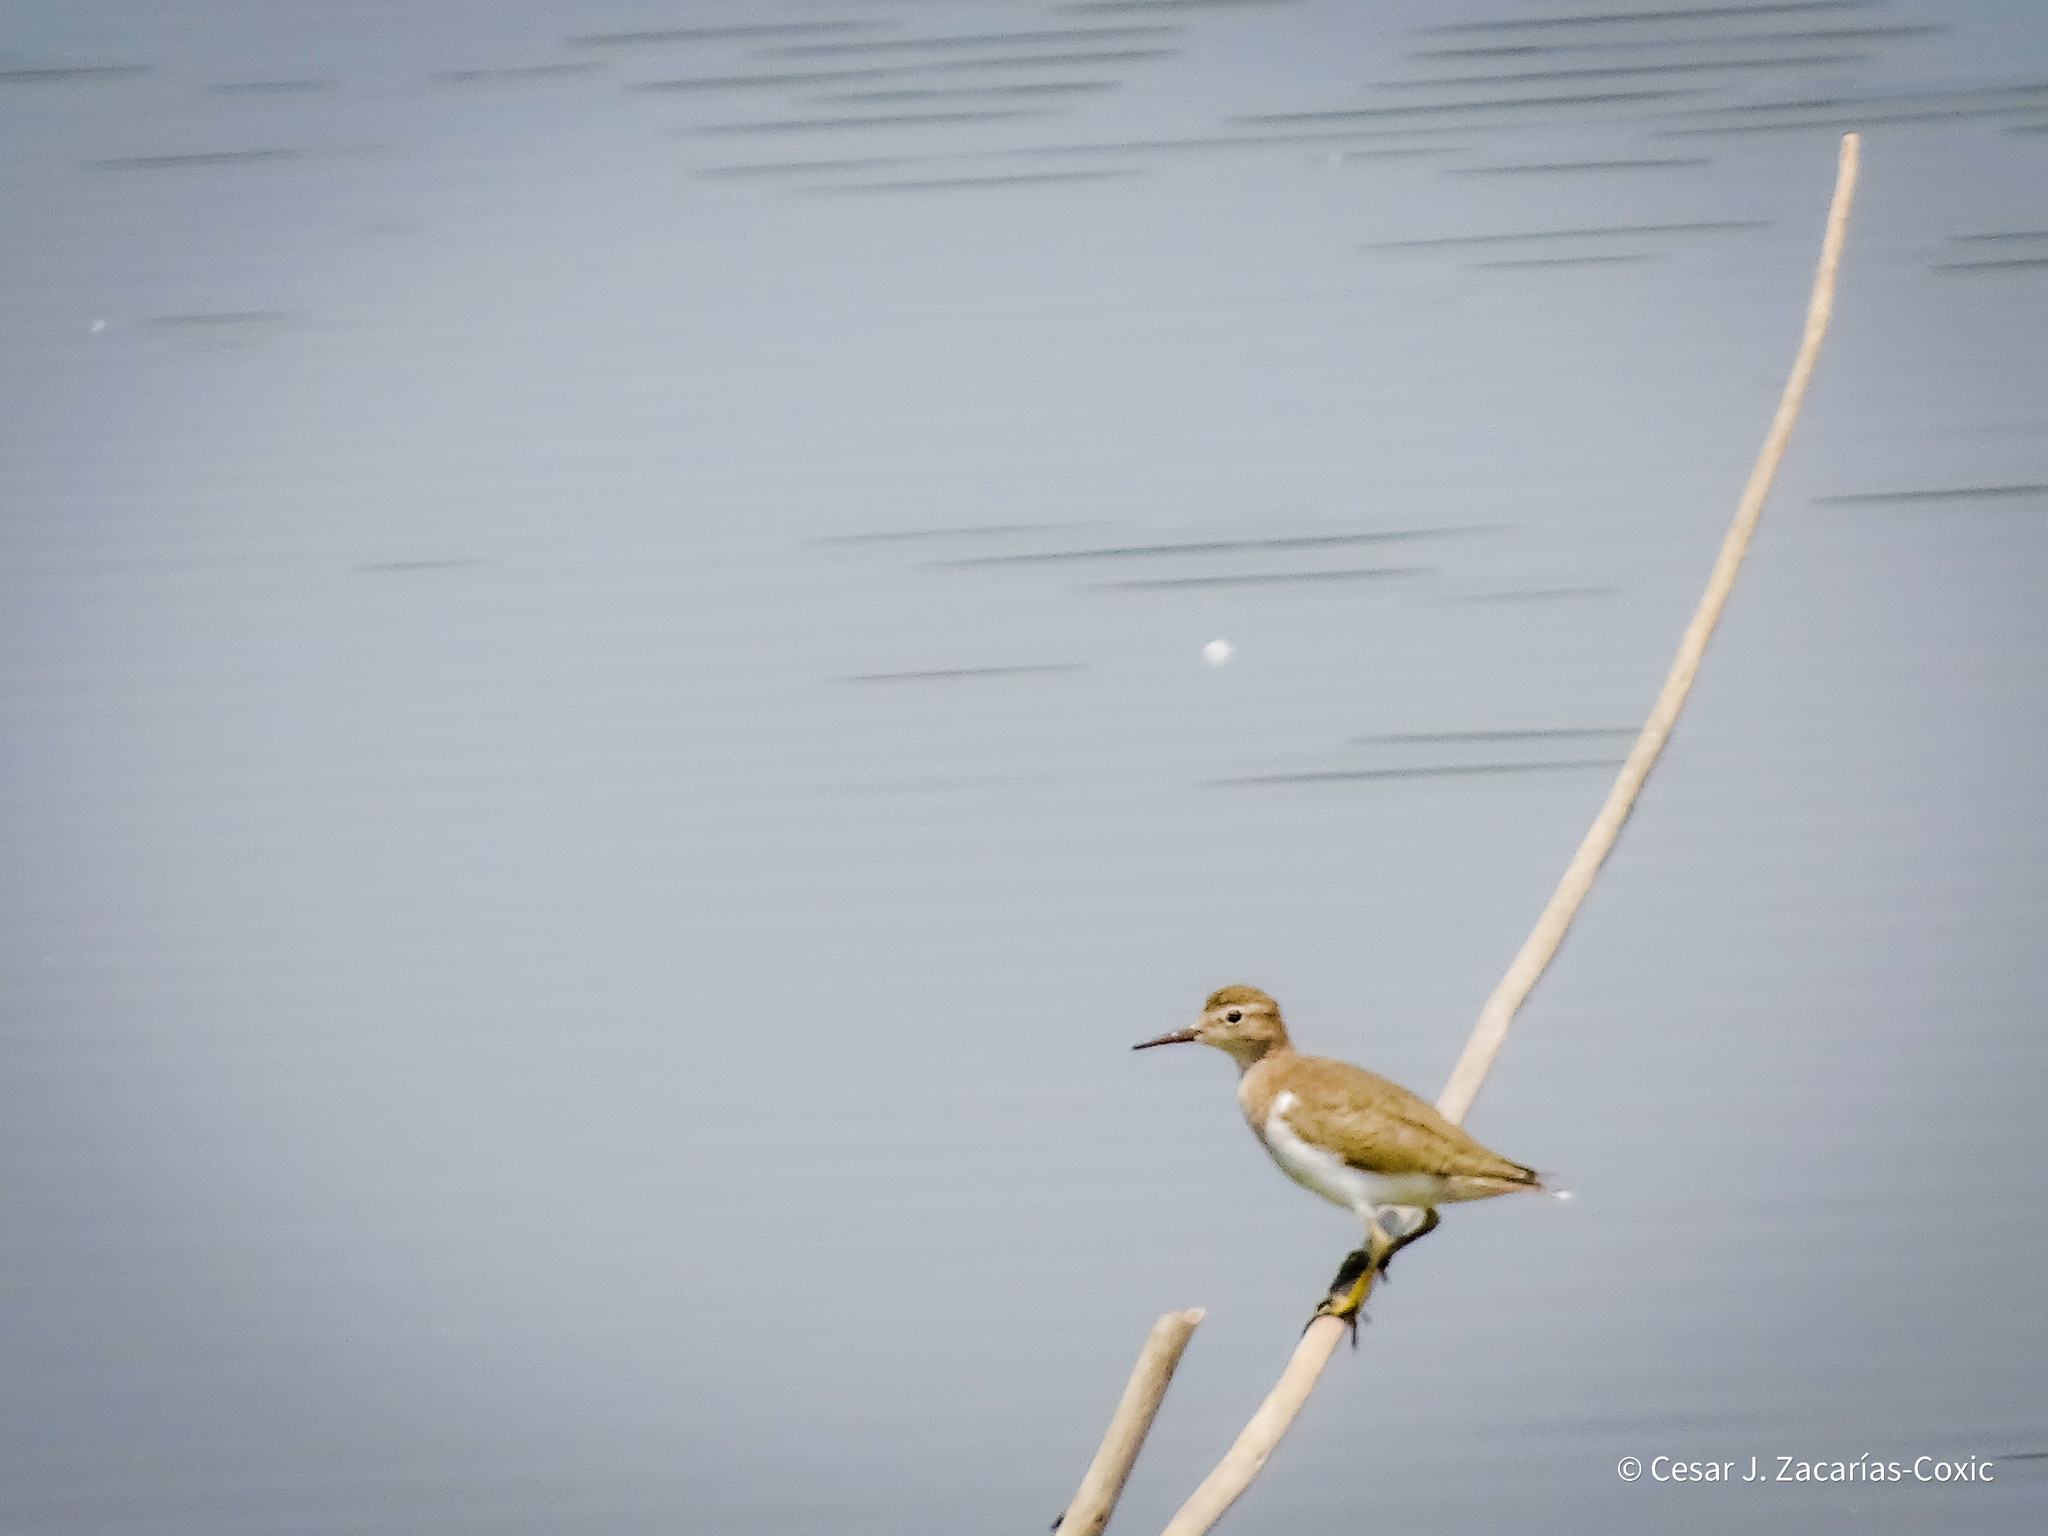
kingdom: Animalia
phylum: Chordata
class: Aves
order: Charadriiformes
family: Scolopacidae
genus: Actitis
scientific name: Actitis macularius
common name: Spotted sandpiper
